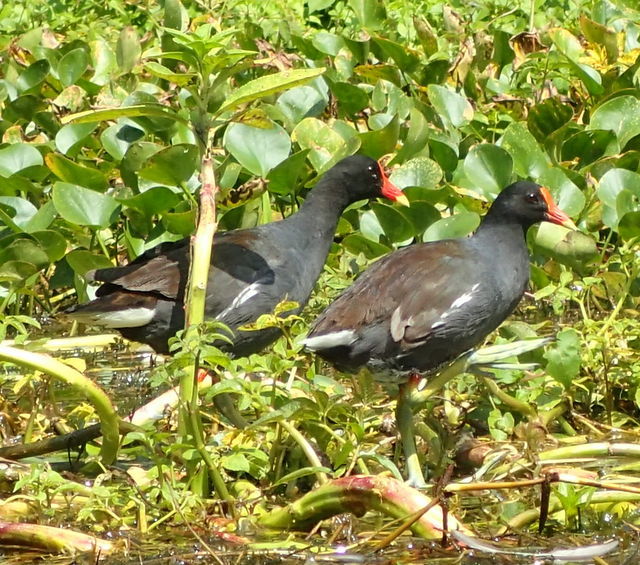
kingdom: Animalia
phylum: Chordata
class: Aves
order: Gruiformes
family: Rallidae
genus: Gallinula
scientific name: Gallinula chloropus
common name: Common moorhen
